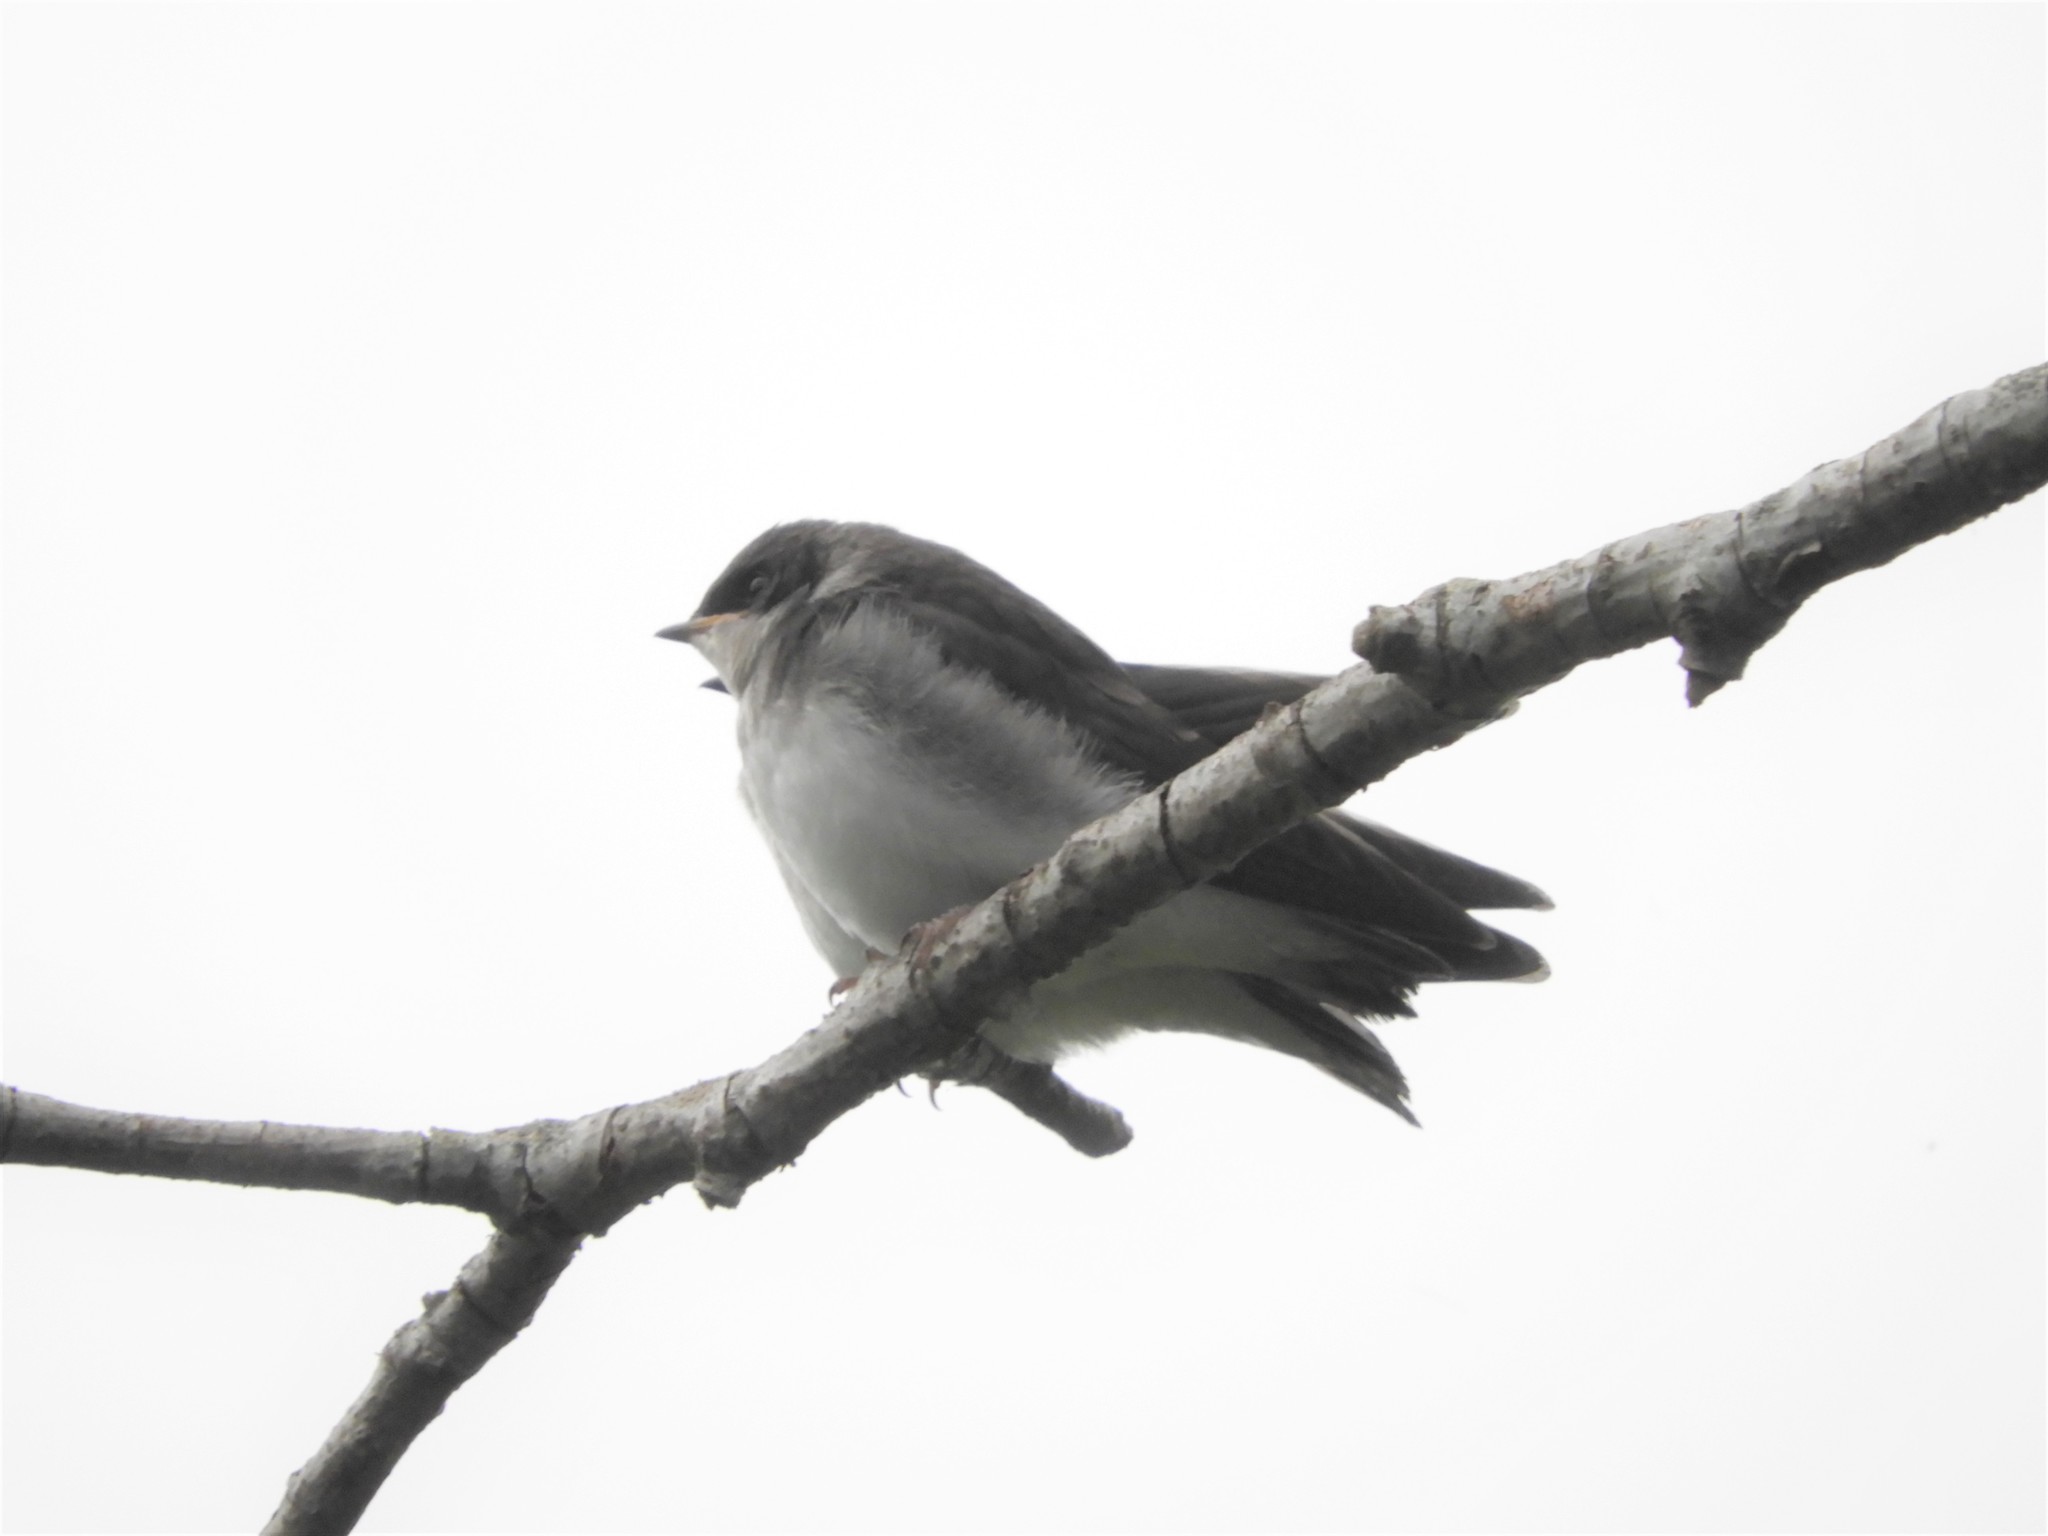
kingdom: Animalia
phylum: Chordata
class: Aves
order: Passeriformes
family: Hirundinidae
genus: Tachycineta
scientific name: Tachycineta bicolor
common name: Tree swallow
